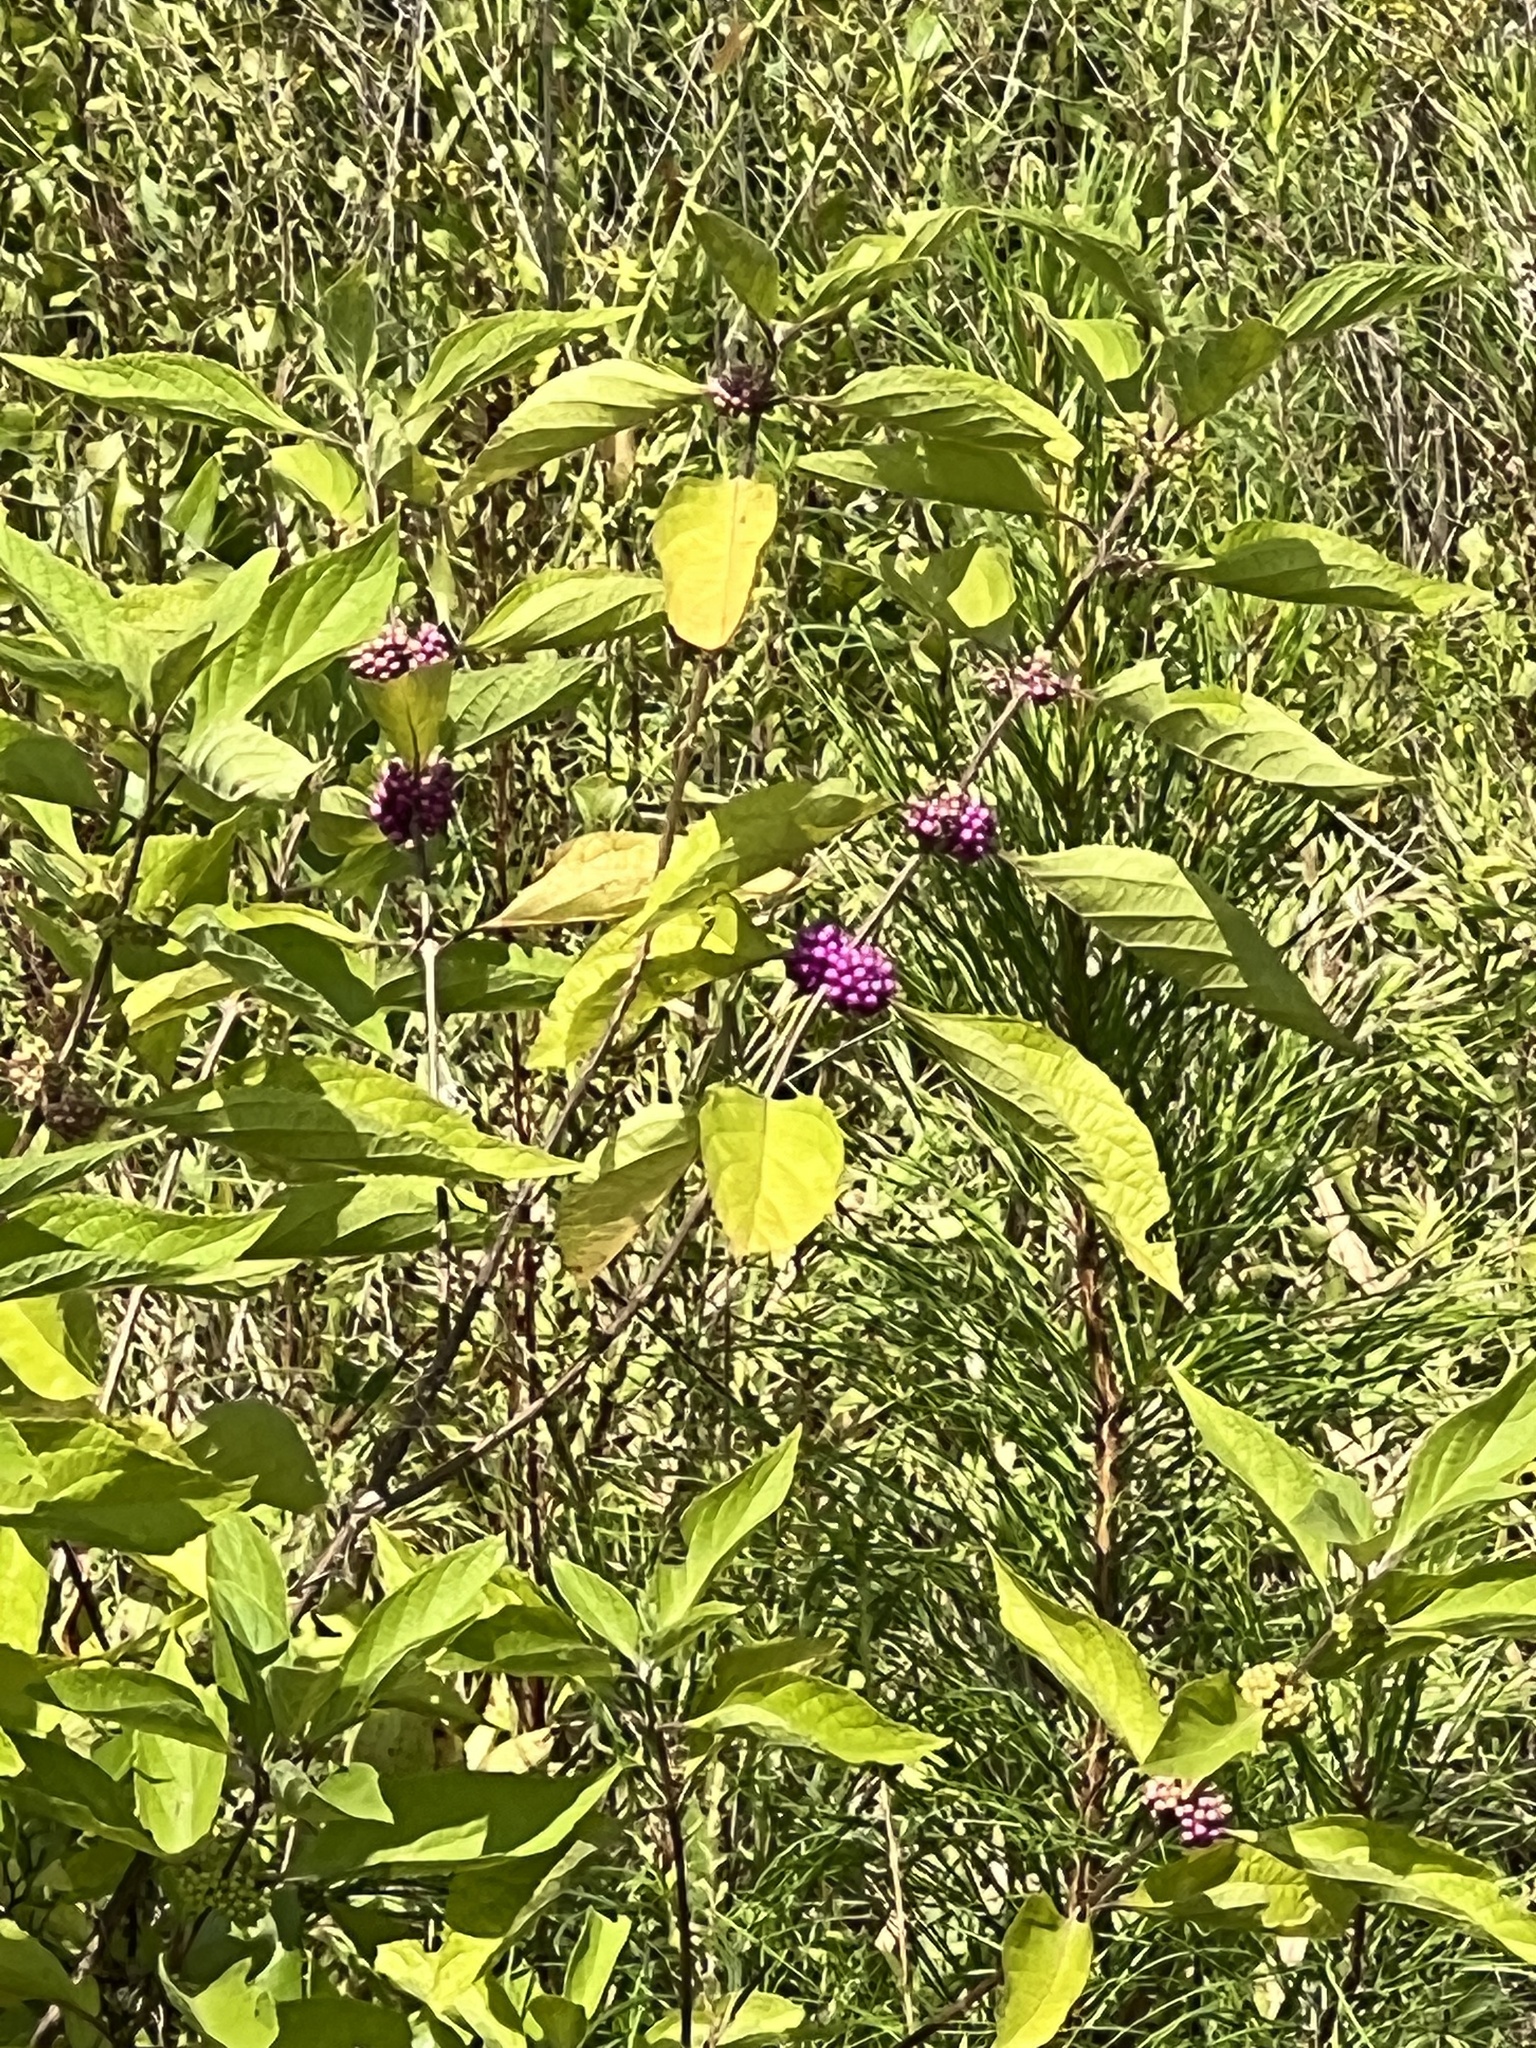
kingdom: Plantae
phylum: Tracheophyta
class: Magnoliopsida
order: Lamiales
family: Lamiaceae
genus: Callicarpa
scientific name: Callicarpa americana
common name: American beautyberry
